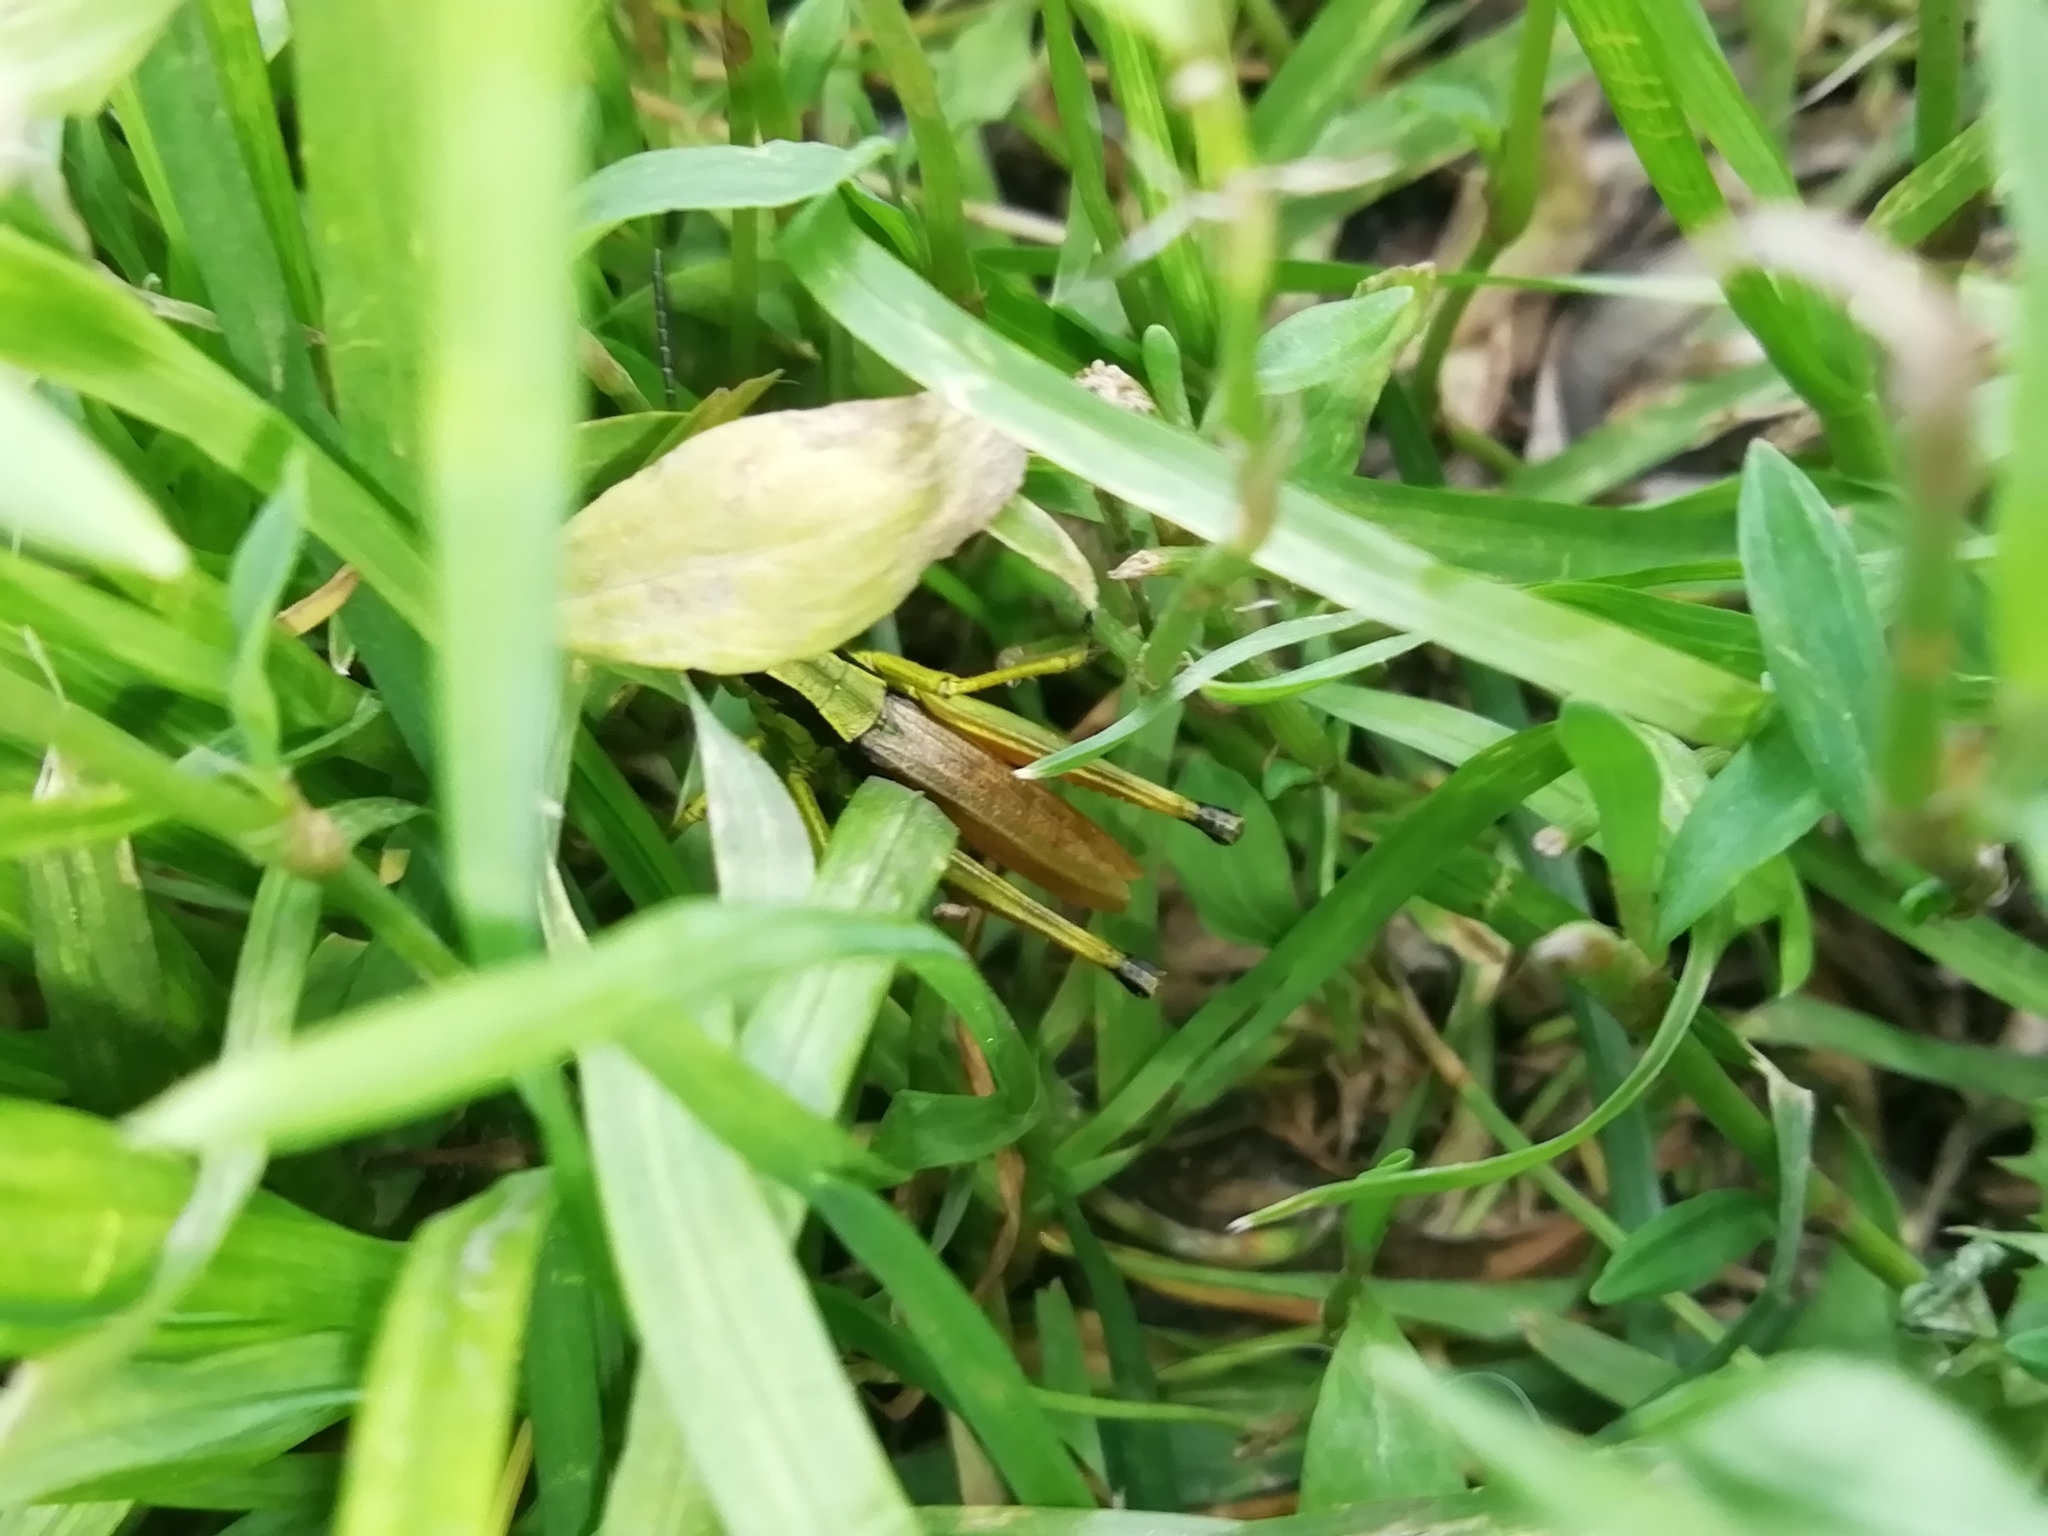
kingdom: Animalia
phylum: Arthropoda
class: Insecta
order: Orthoptera
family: Acrididae
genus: Podismopsis
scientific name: Podismopsis poppiusi
